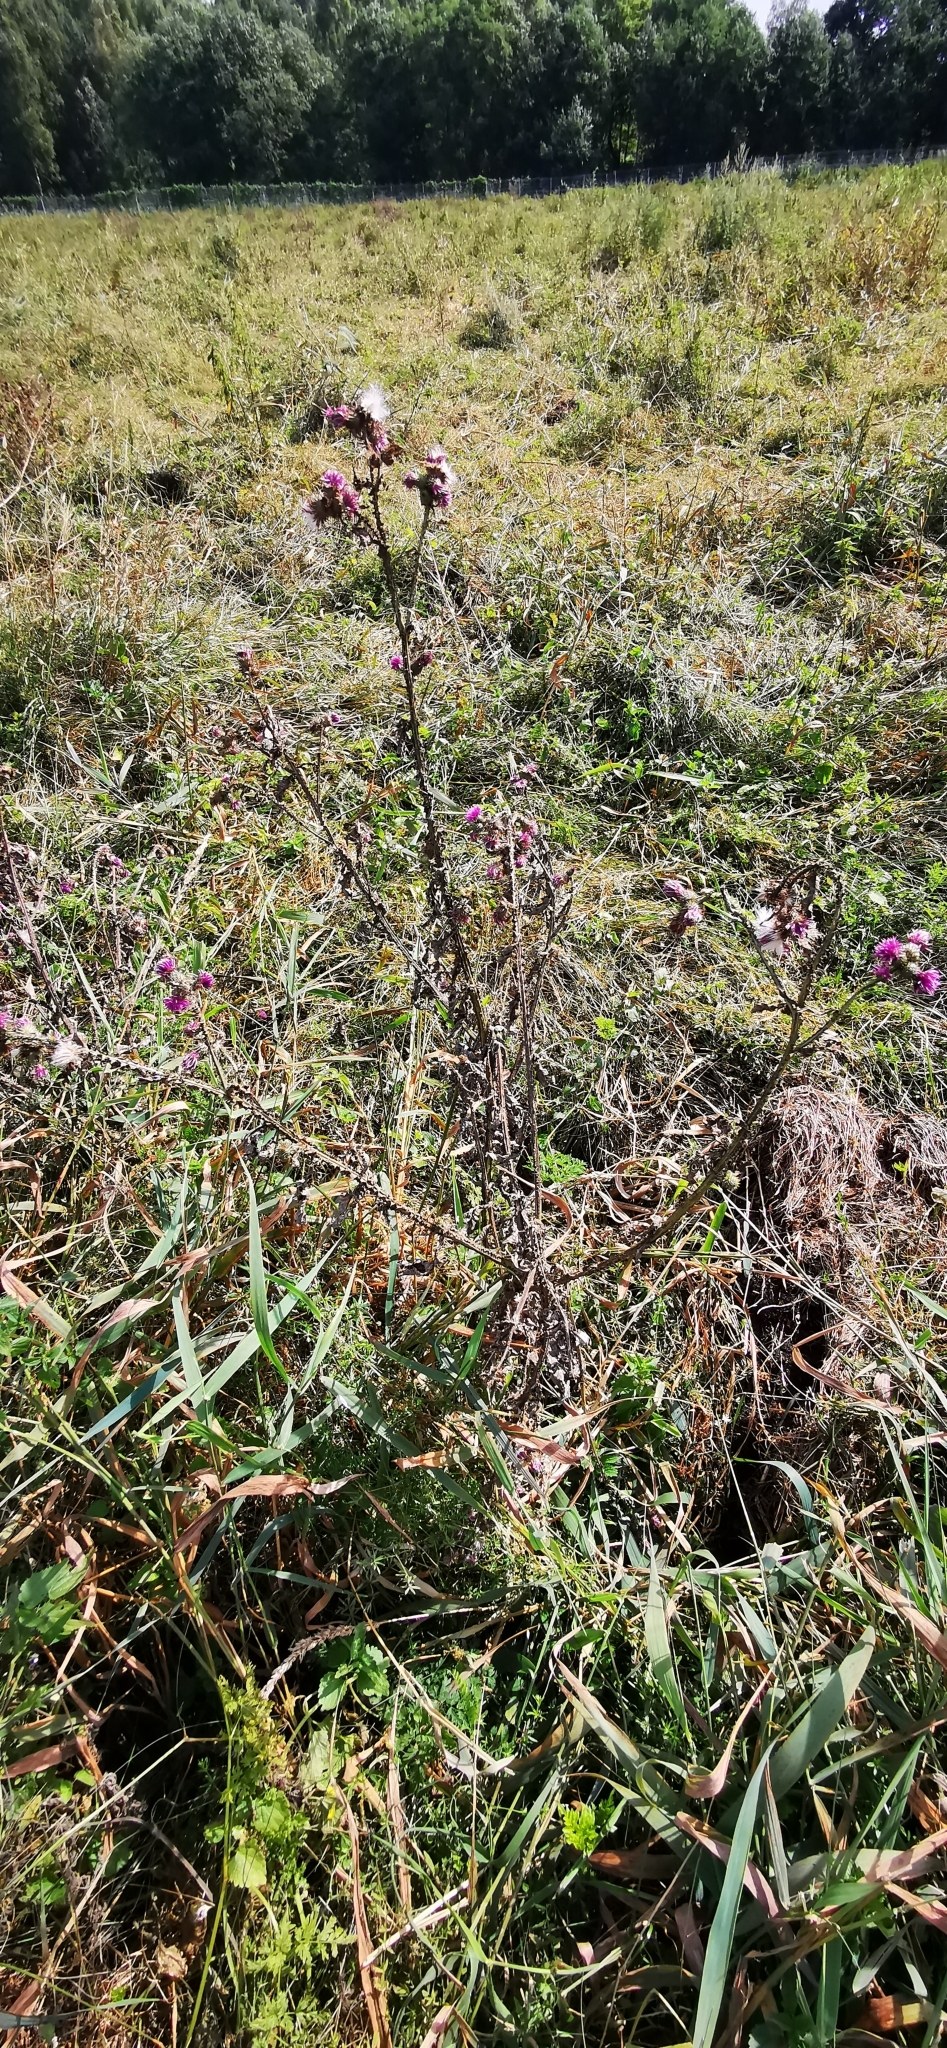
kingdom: Plantae
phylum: Tracheophyta
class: Magnoliopsida
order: Asterales
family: Asteraceae
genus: Carduus
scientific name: Carduus crispus
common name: Welted thistle
